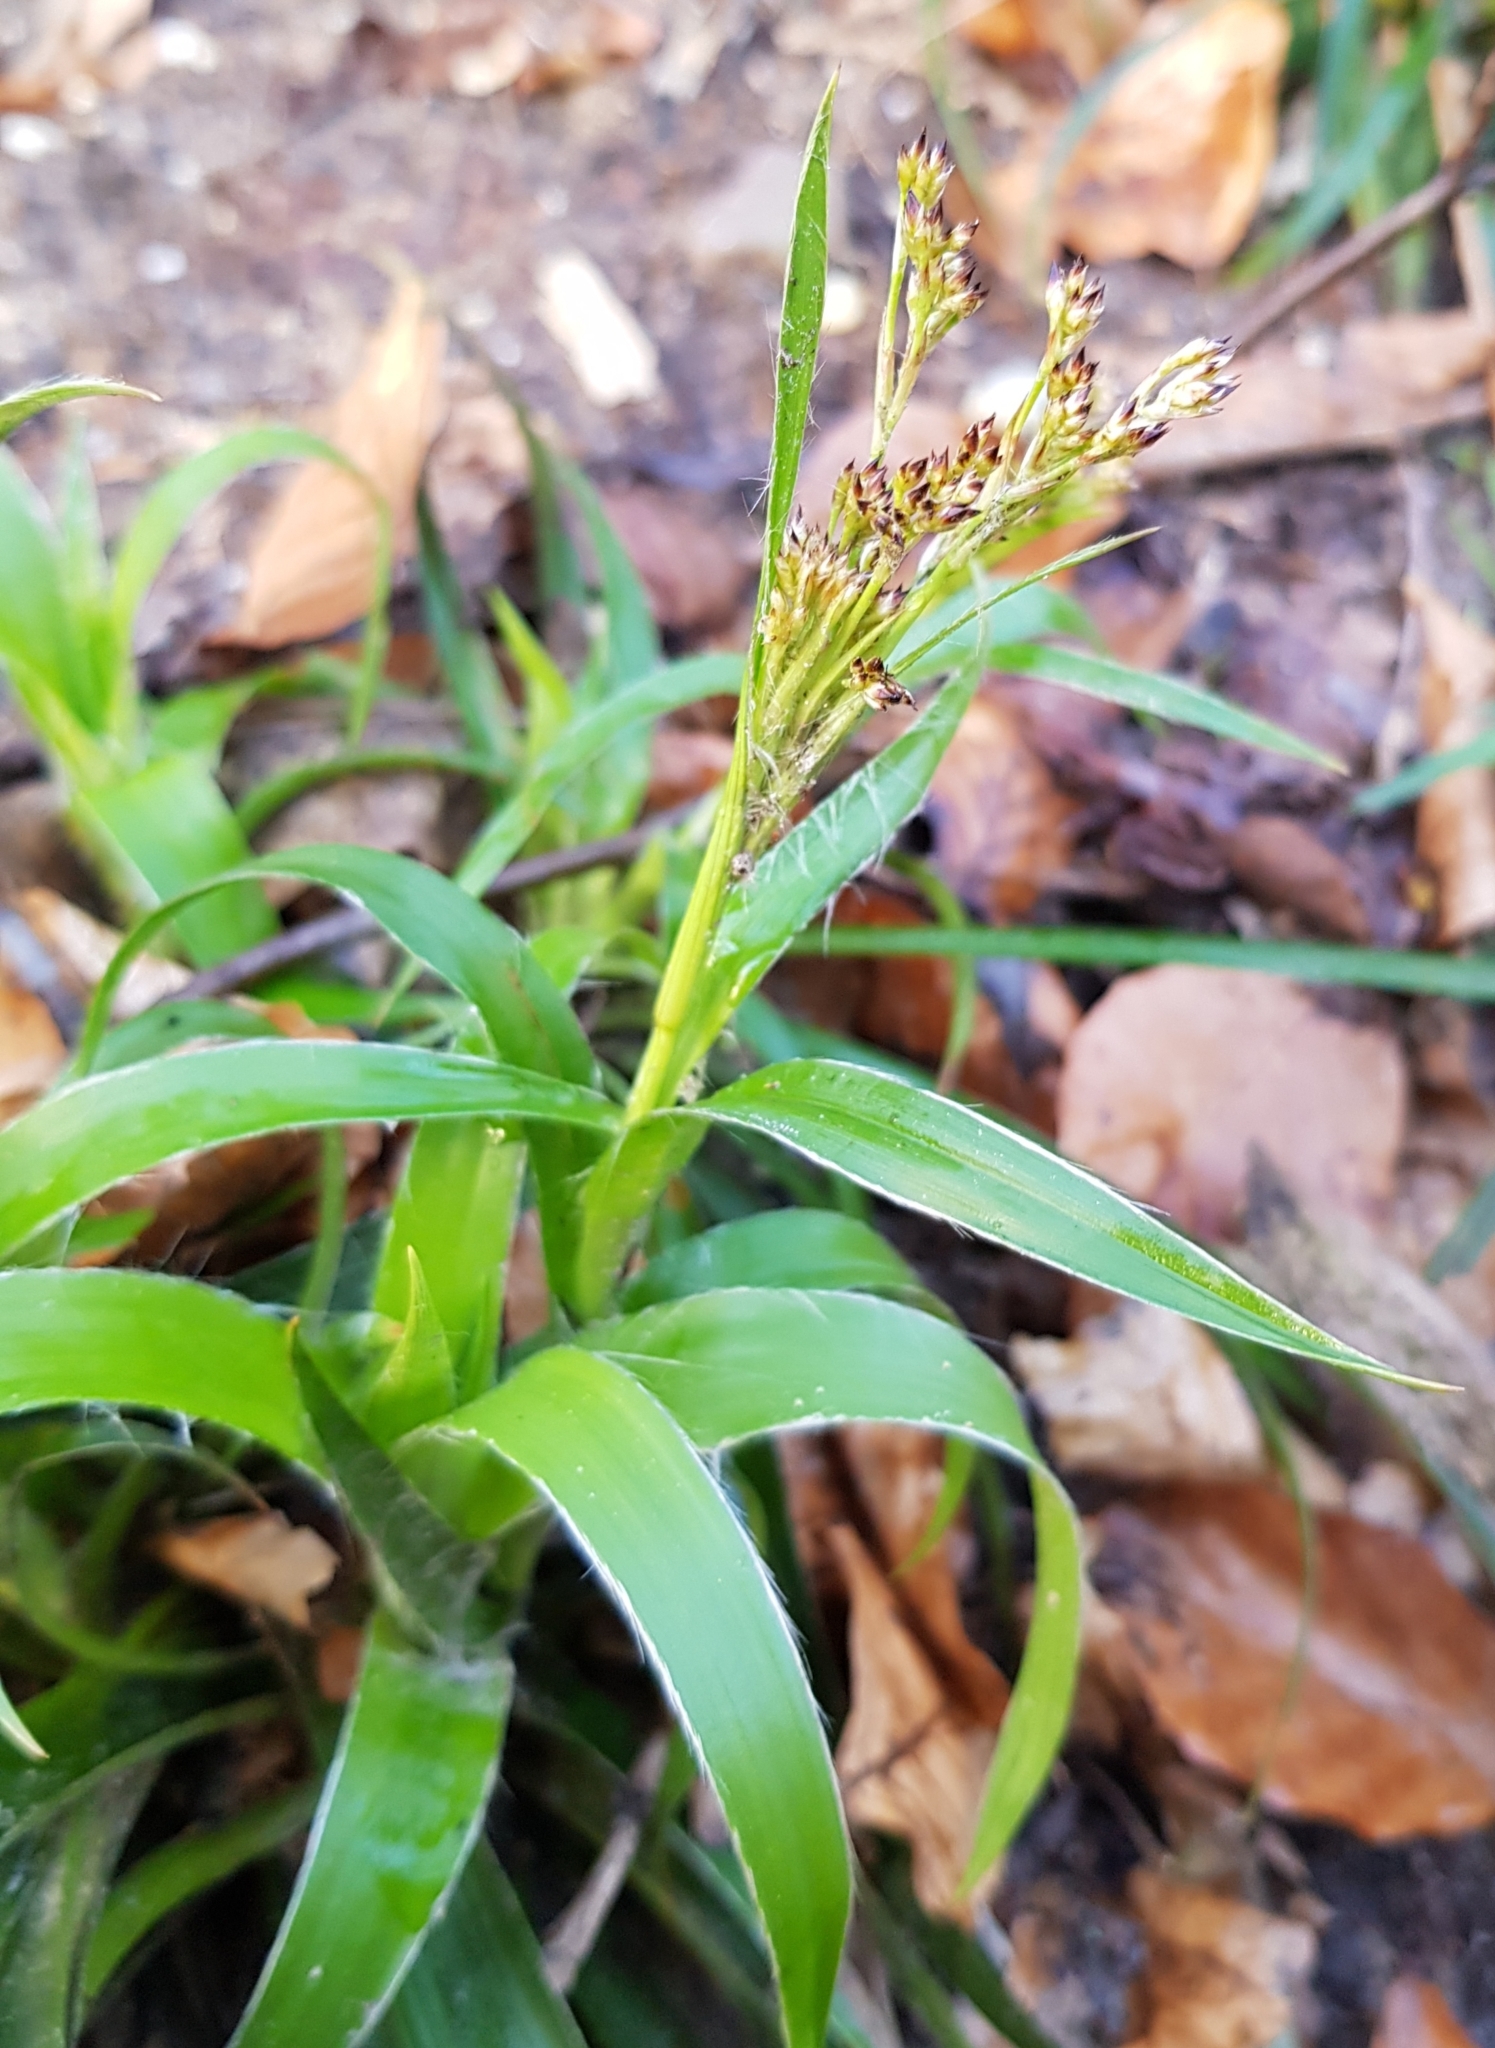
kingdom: Plantae
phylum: Tracheophyta
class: Liliopsida
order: Poales
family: Juncaceae
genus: Luzula
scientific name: Luzula sylvatica
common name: Great wood-rush
